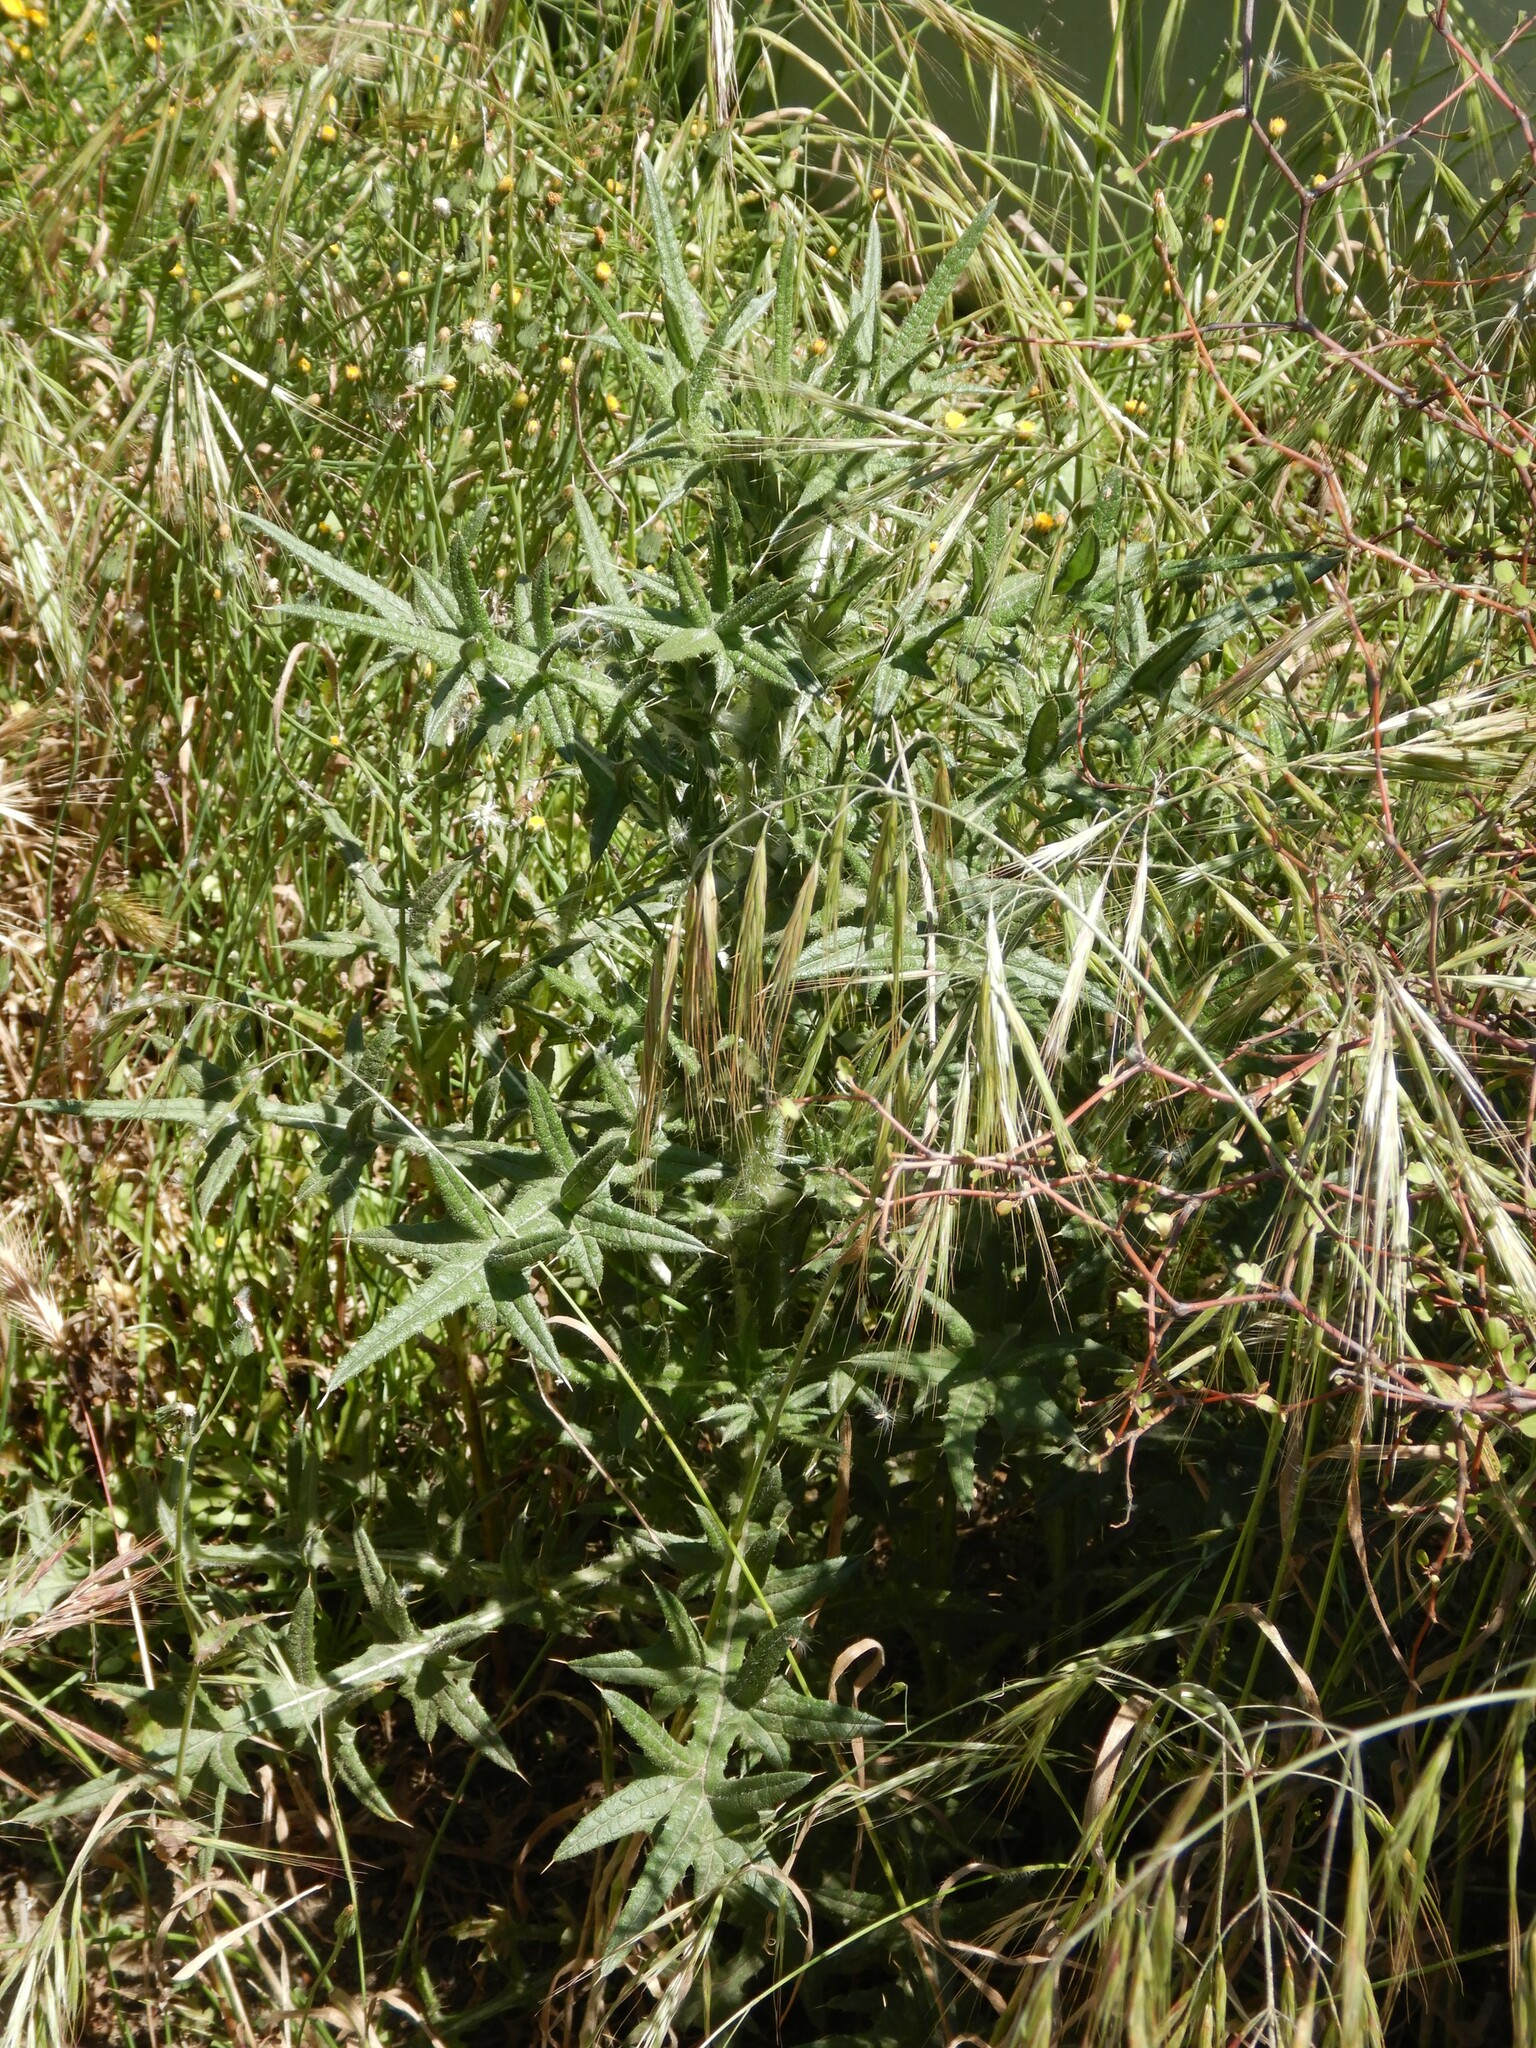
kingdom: Plantae
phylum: Tracheophyta
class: Magnoliopsida
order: Asterales
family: Asteraceae
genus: Cirsium
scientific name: Cirsium vulgare
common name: Bull thistle
